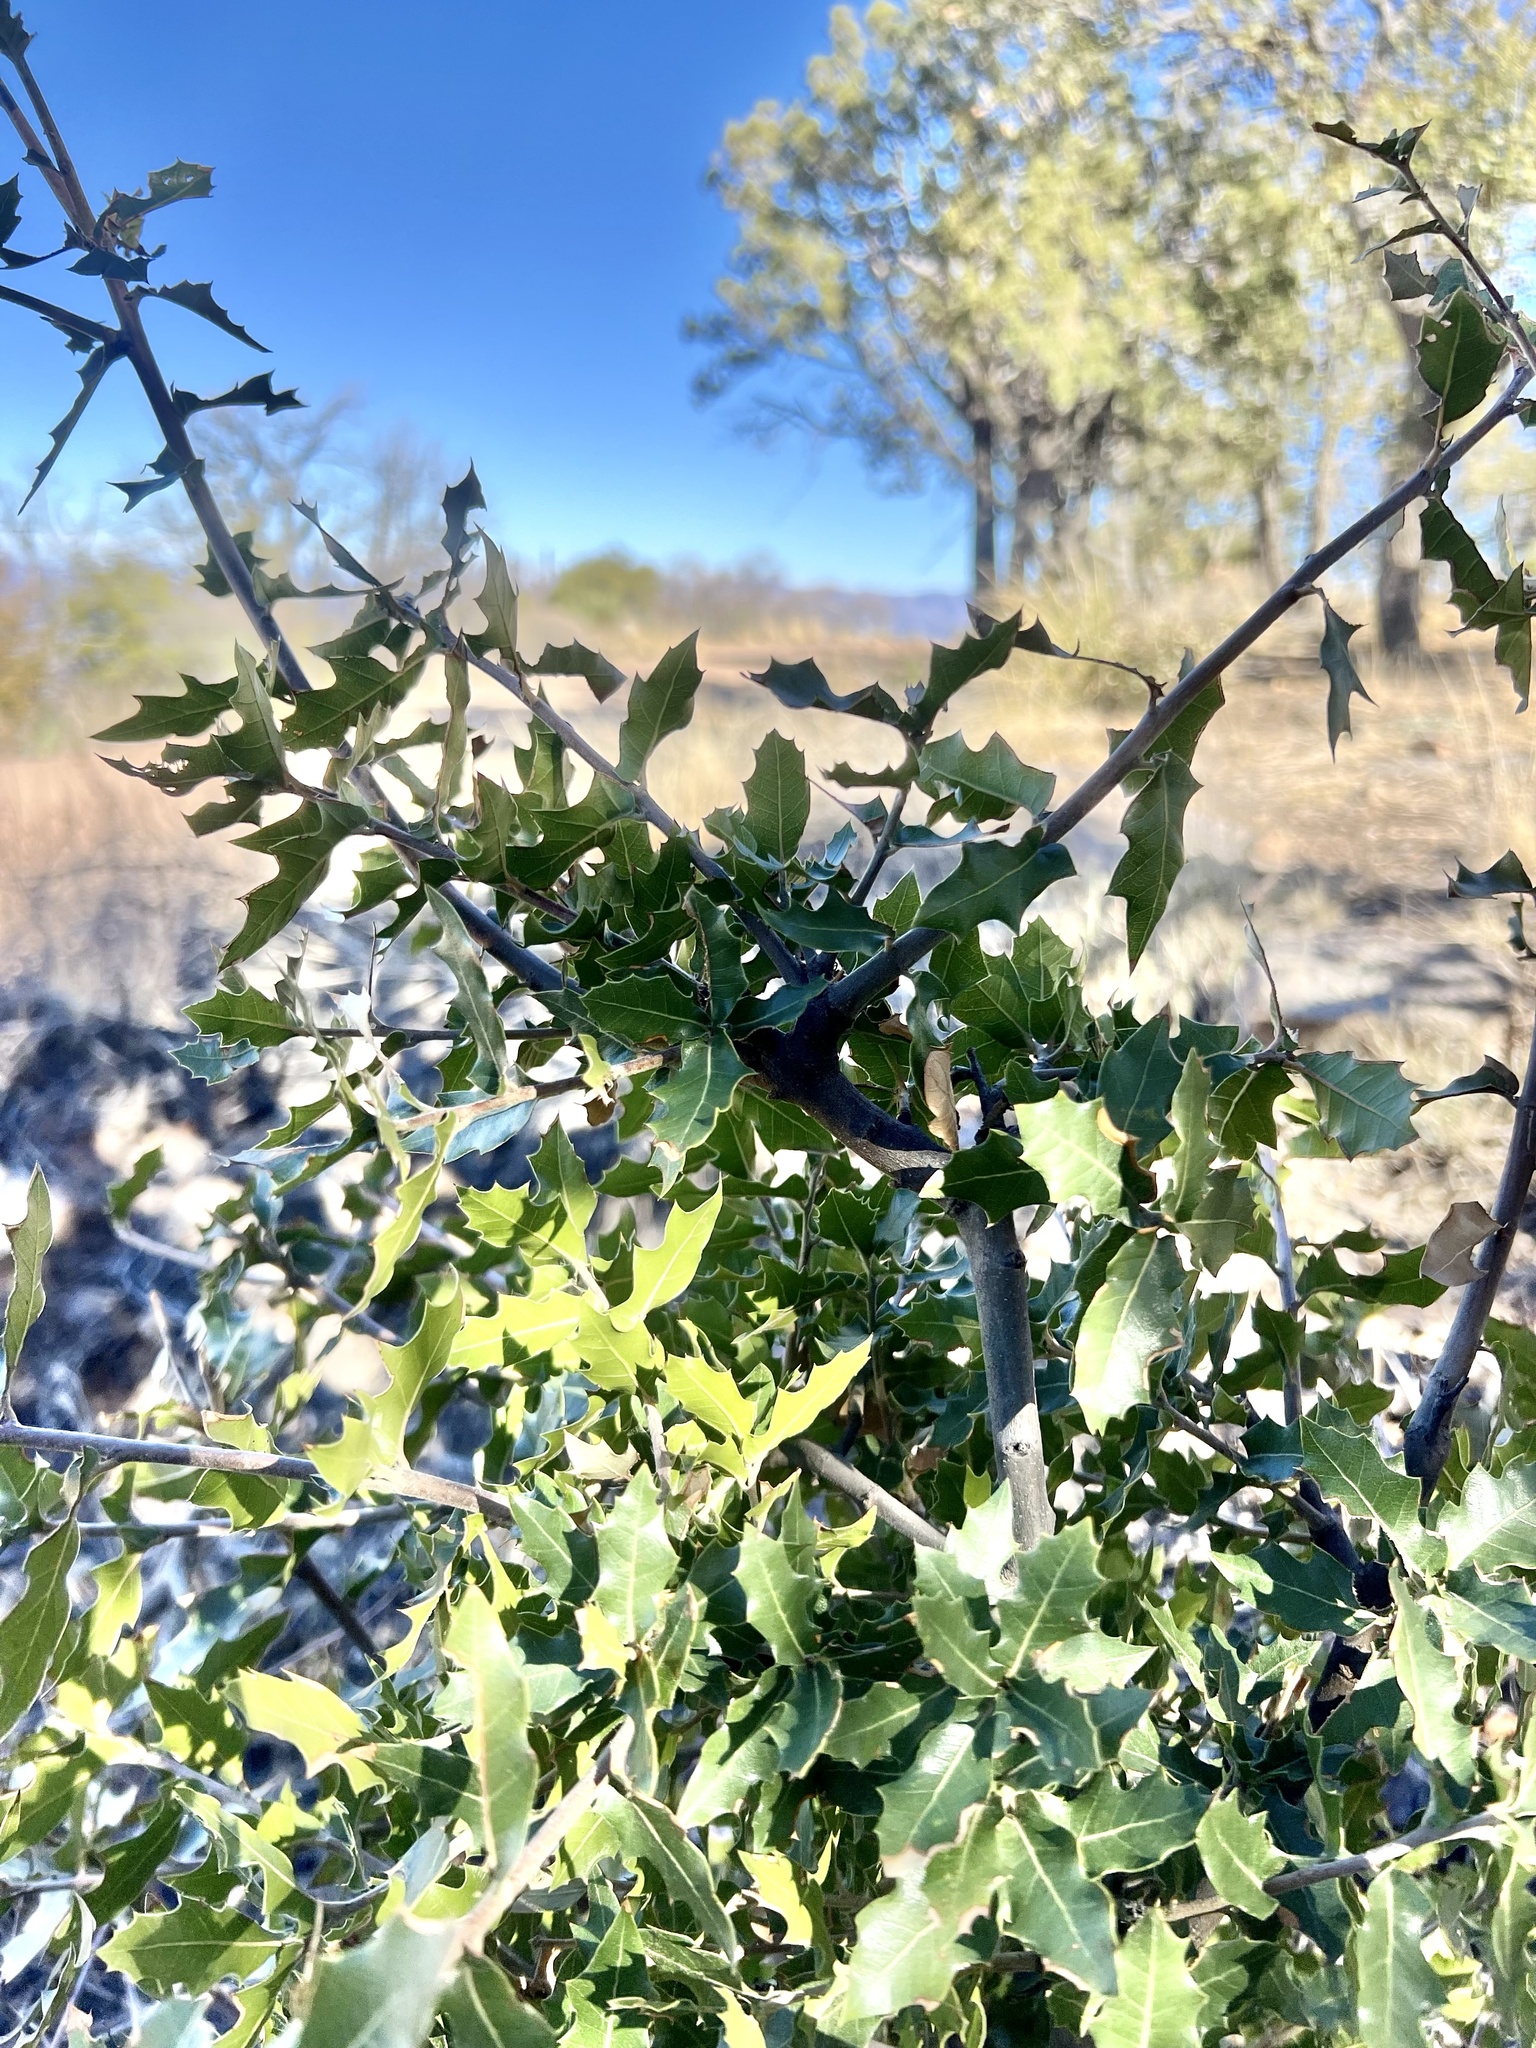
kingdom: Plantae
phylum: Tracheophyta
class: Magnoliopsida
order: Fagales
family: Fagaceae
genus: Quercus
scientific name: Quercus emoryi
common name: Emory oak
